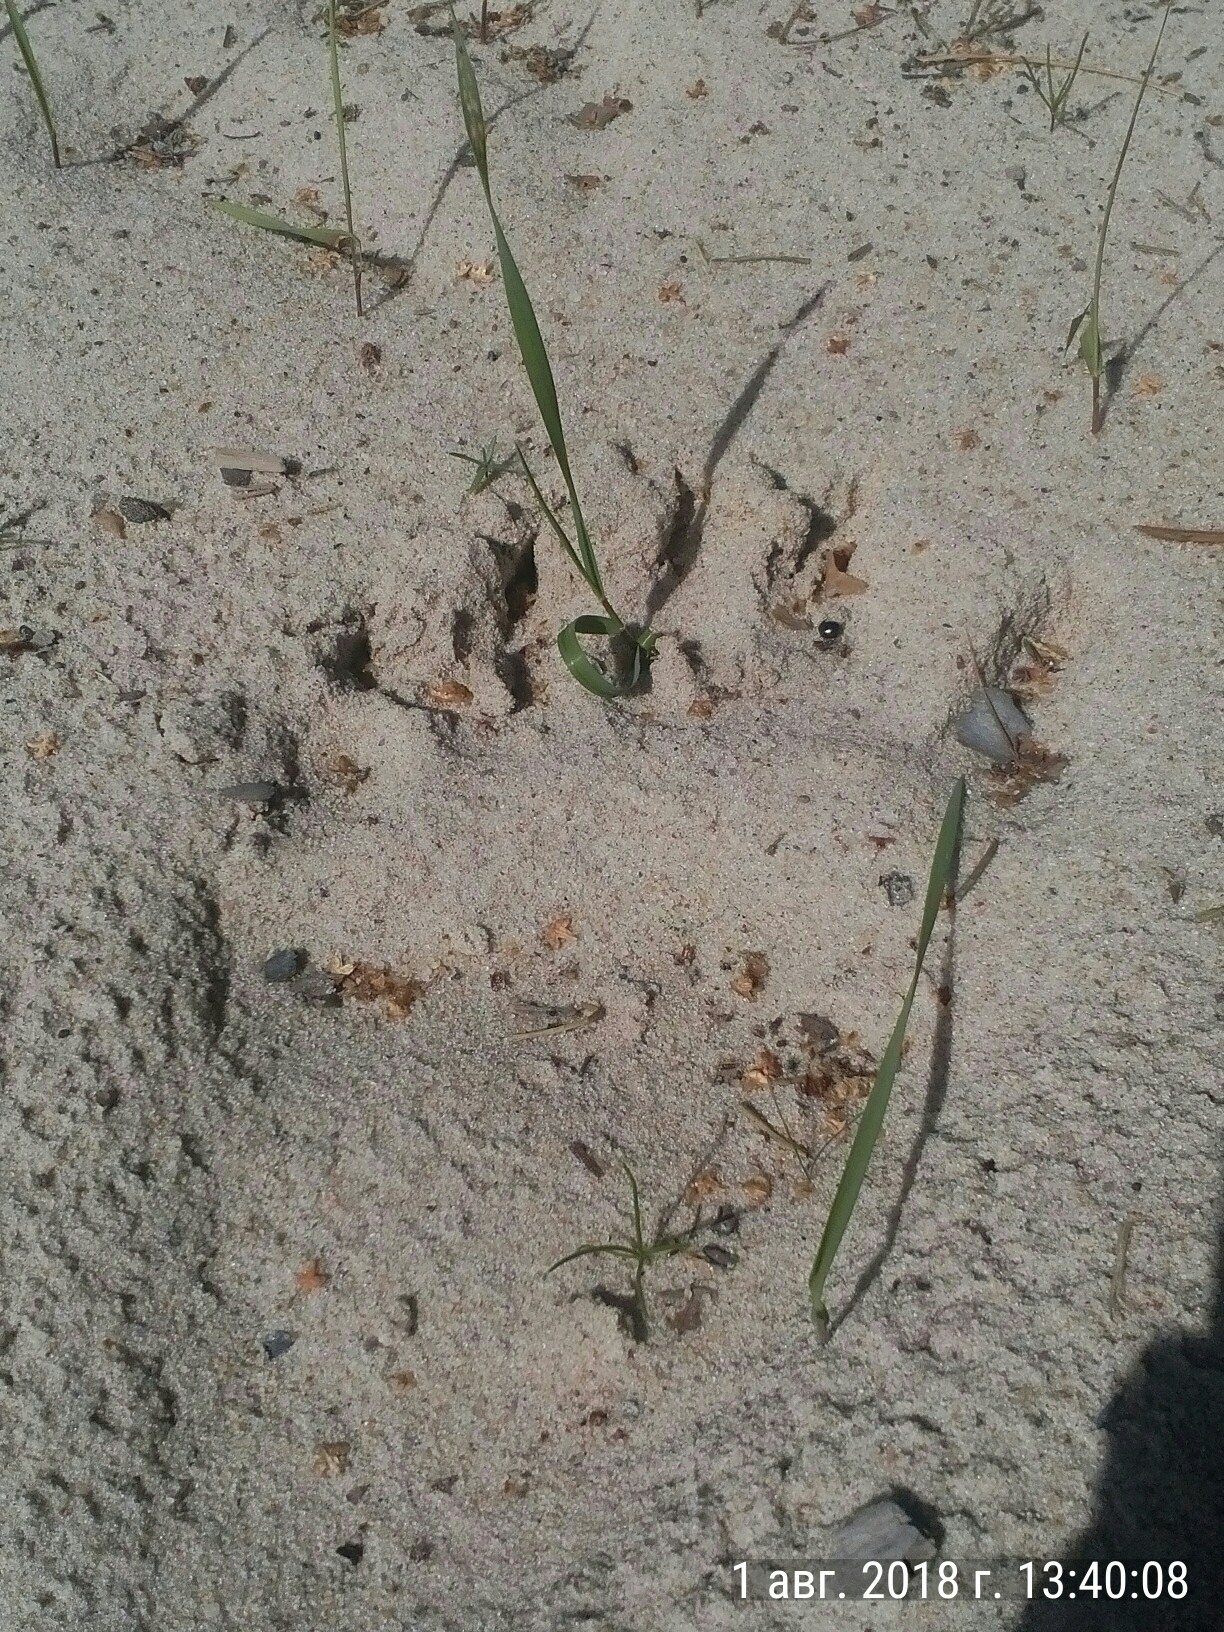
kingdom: Animalia
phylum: Chordata
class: Mammalia
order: Carnivora
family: Ursidae
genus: Ursus
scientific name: Ursus arctos
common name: Brown bear
